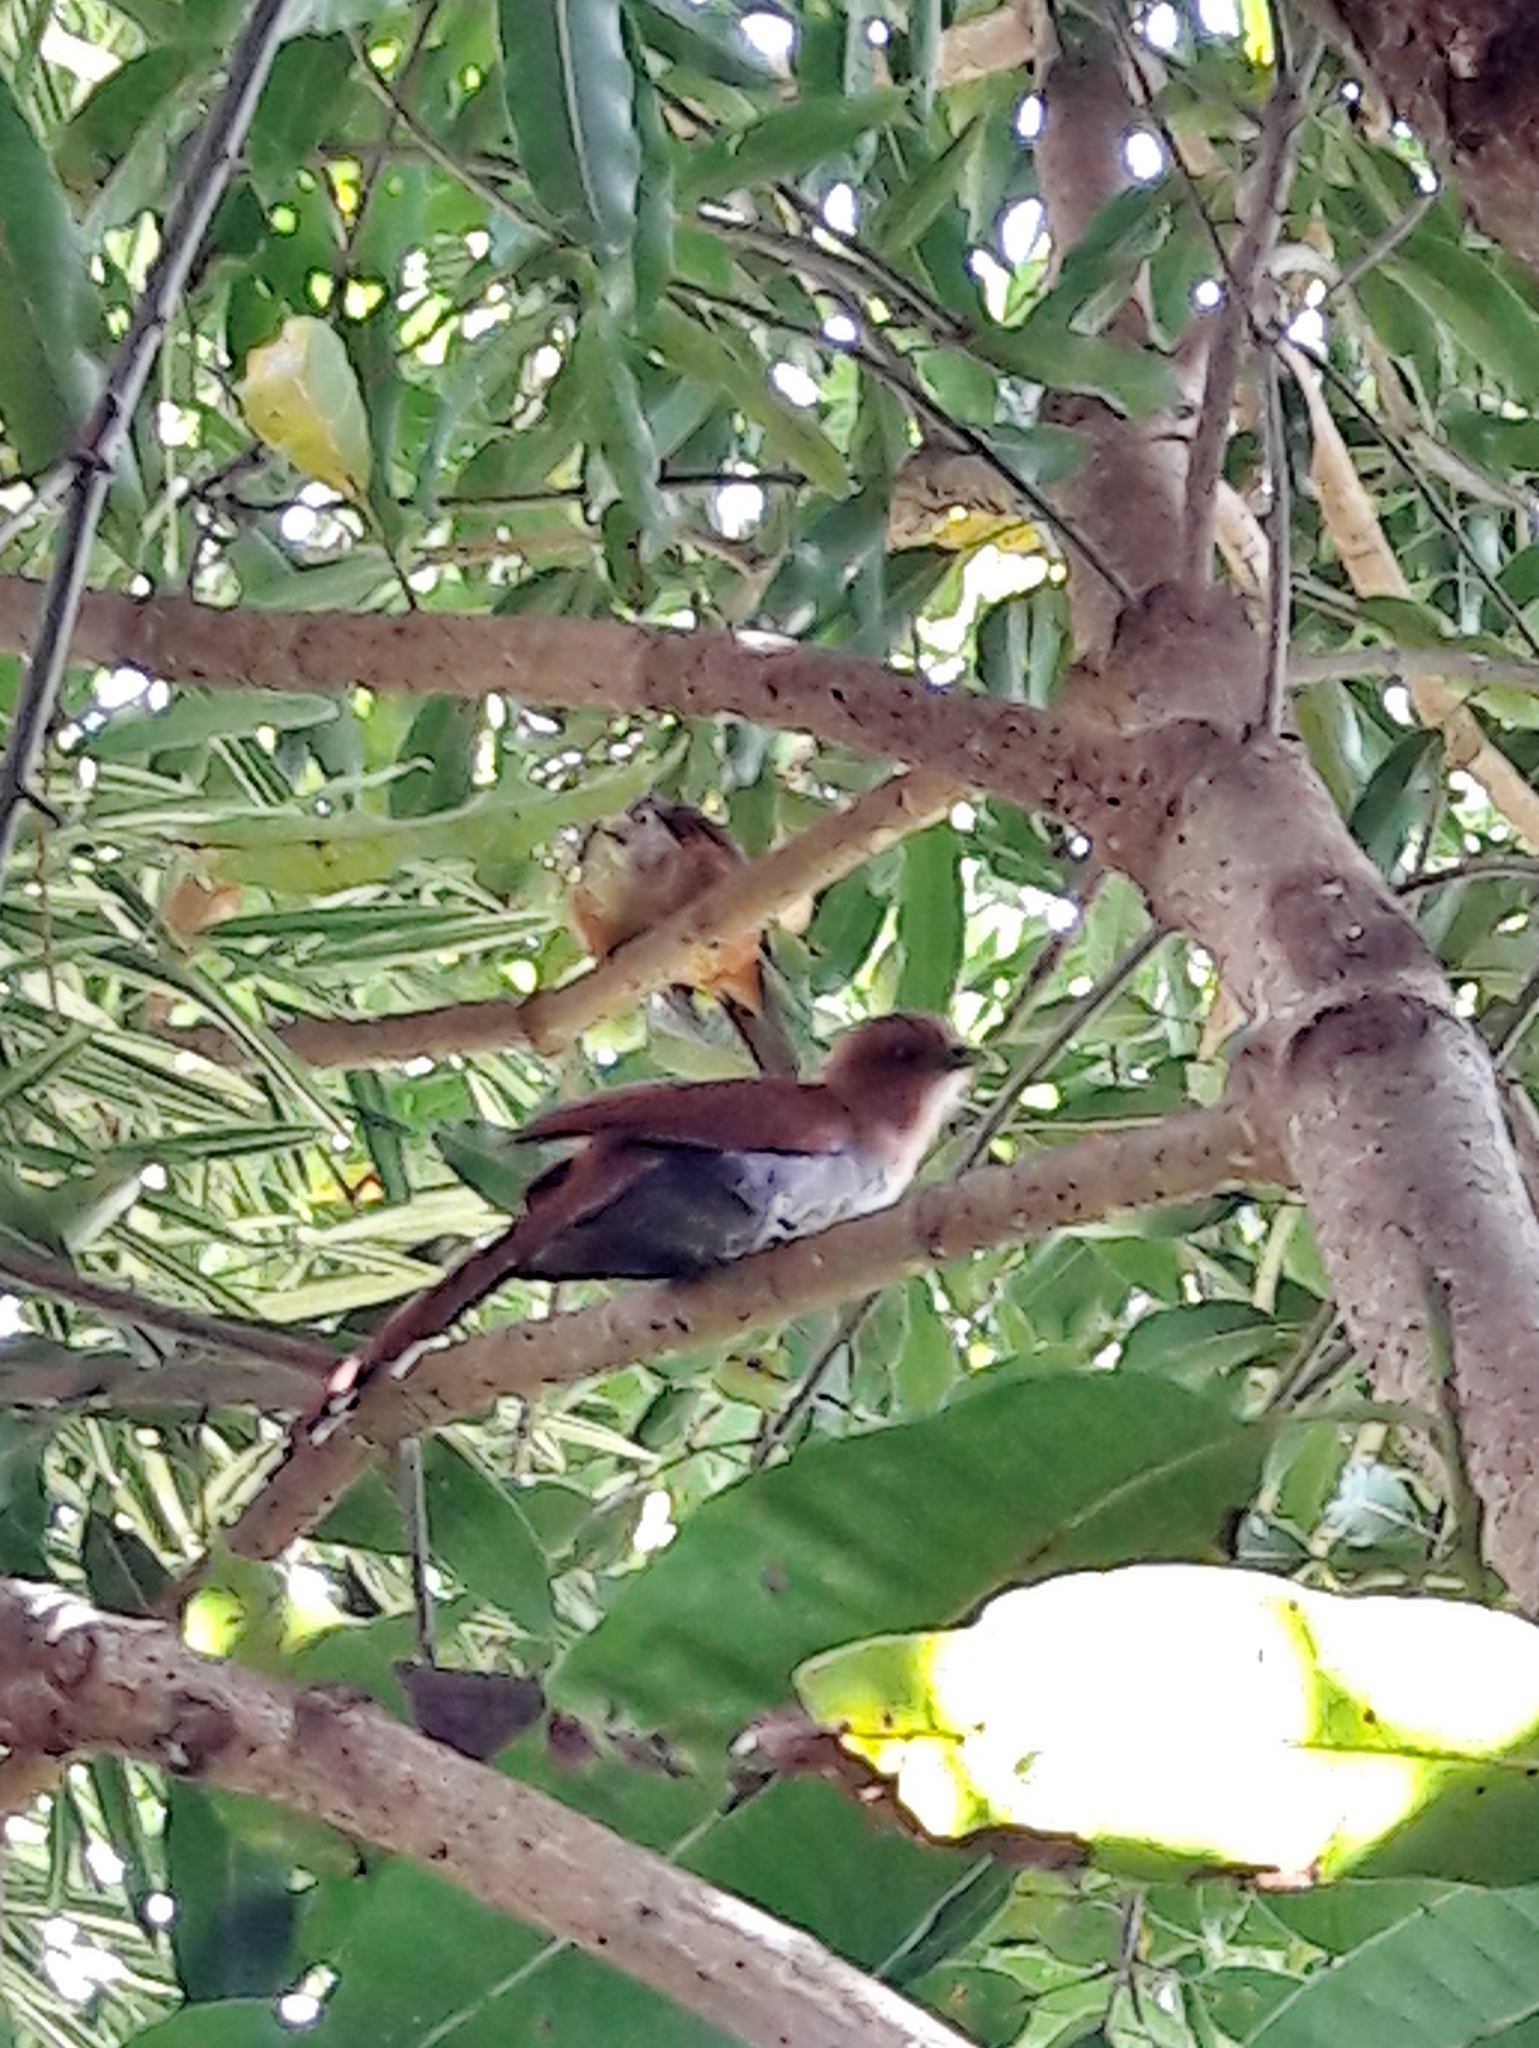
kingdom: Animalia
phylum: Chordata
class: Aves
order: Cuculiformes
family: Cuculidae
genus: Piaya
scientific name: Piaya cayana
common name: Squirrel cuckoo
